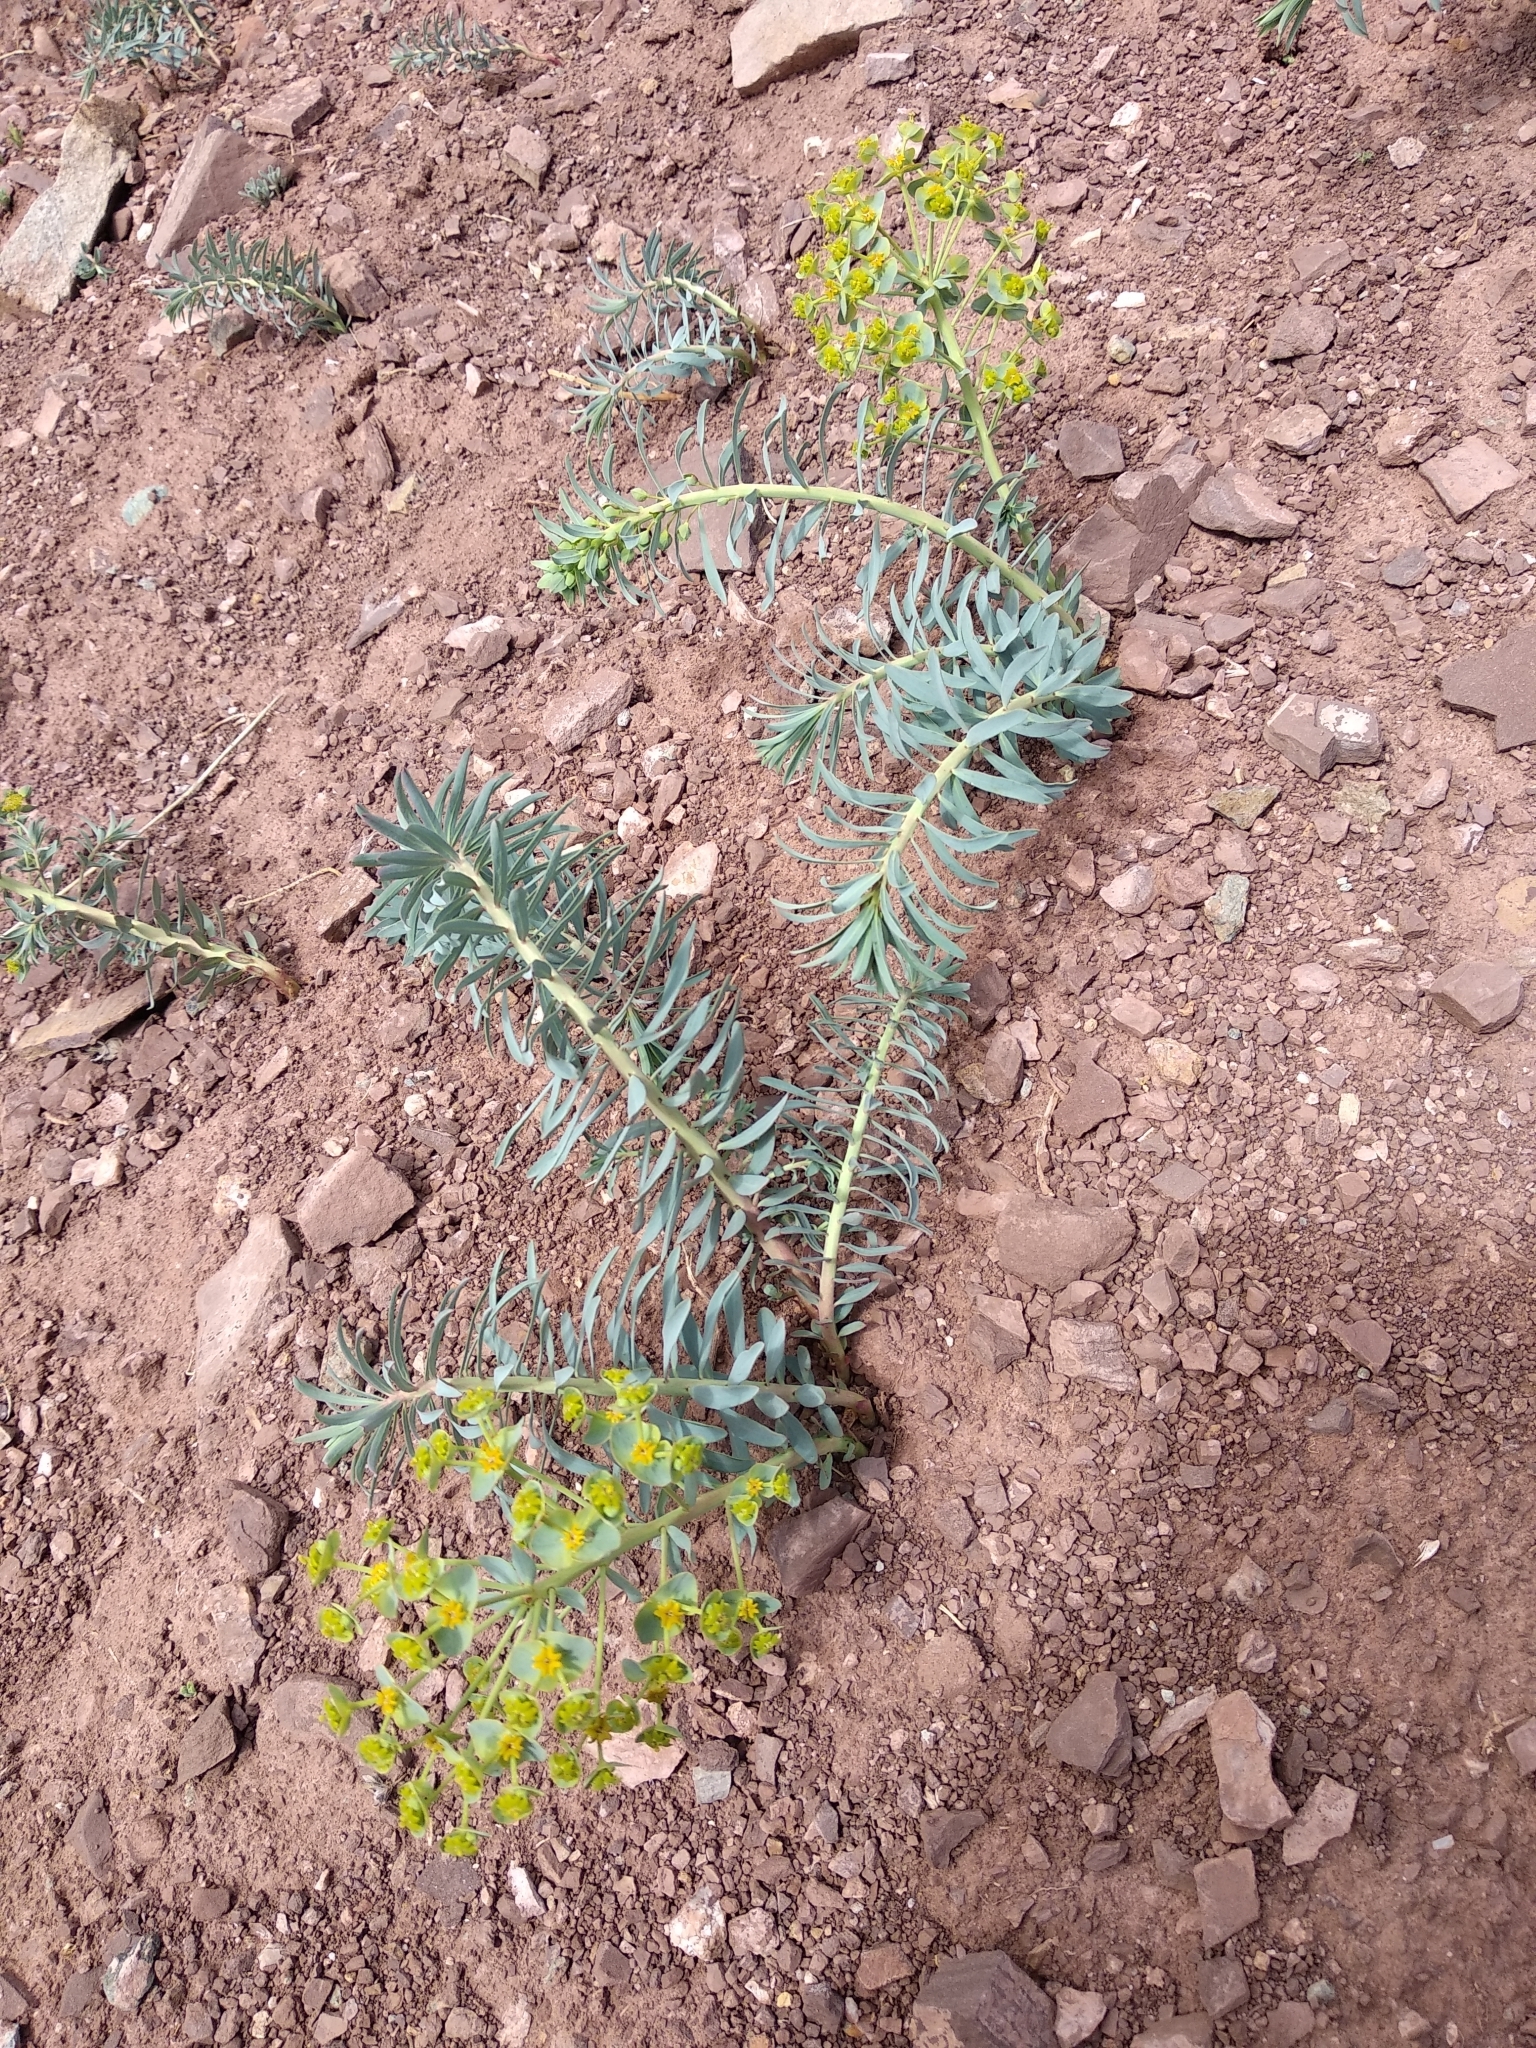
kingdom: Plantae
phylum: Tracheophyta
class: Magnoliopsida
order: Malpighiales
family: Euphorbiaceae
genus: Euphorbia
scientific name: Euphorbia tshuiensis
